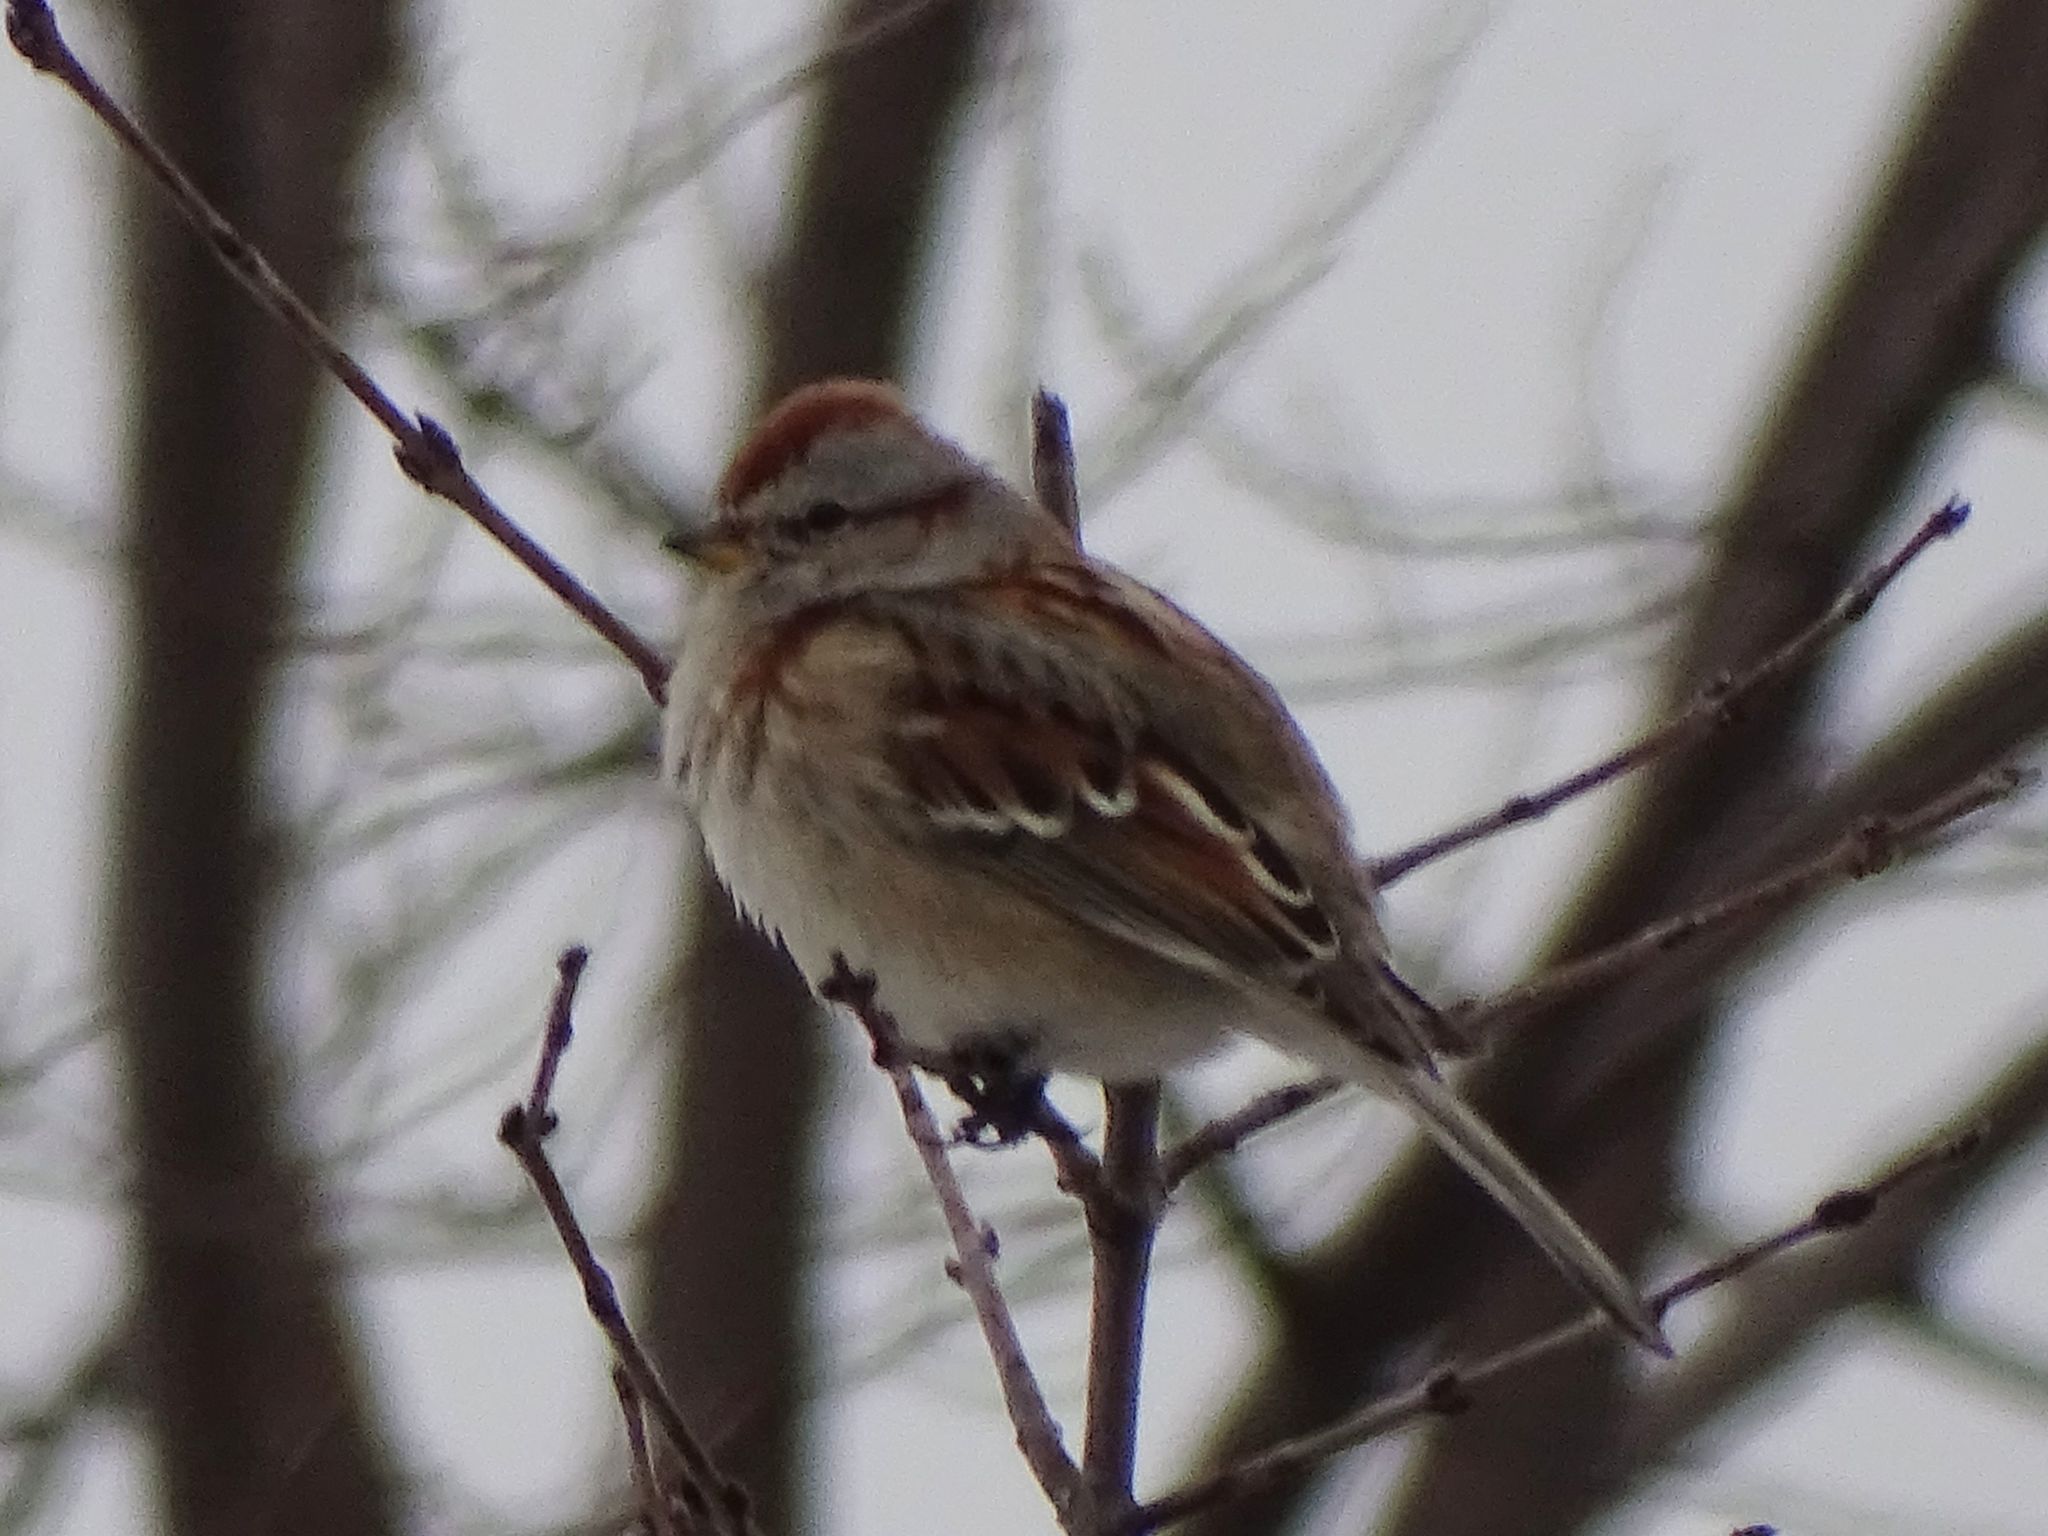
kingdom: Animalia
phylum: Chordata
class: Aves
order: Passeriformes
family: Passerellidae
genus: Spizelloides
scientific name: Spizelloides arborea
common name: American tree sparrow
